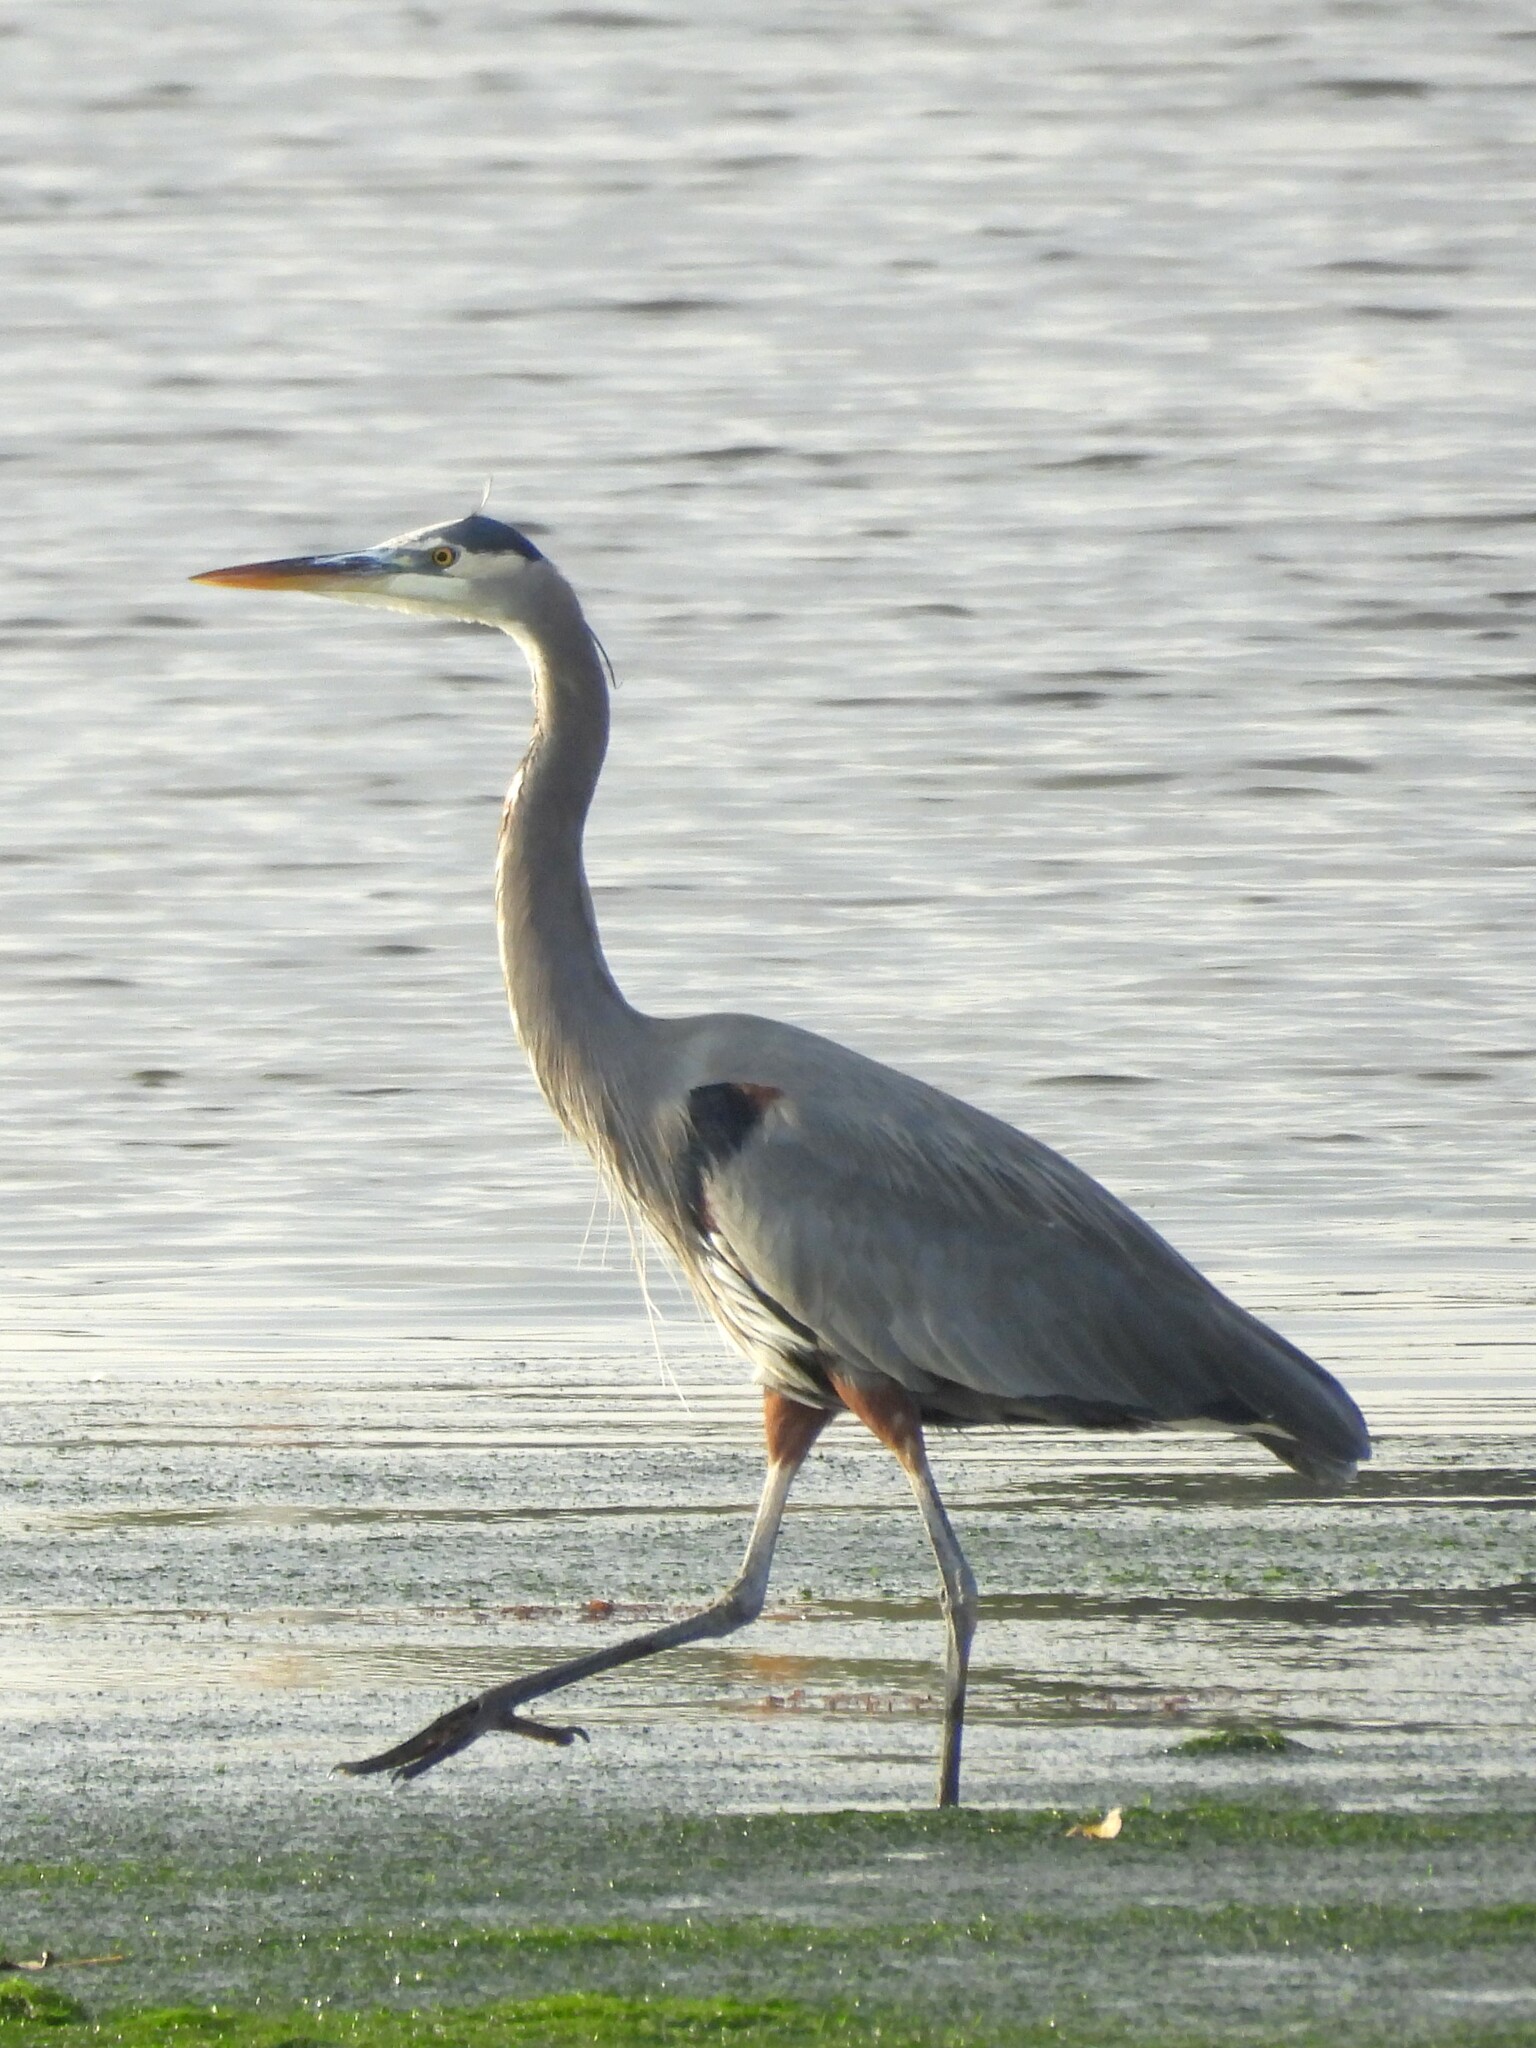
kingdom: Animalia
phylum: Chordata
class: Aves
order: Pelecaniformes
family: Ardeidae
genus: Ardea
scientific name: Ardea herodias
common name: Great blue heron
